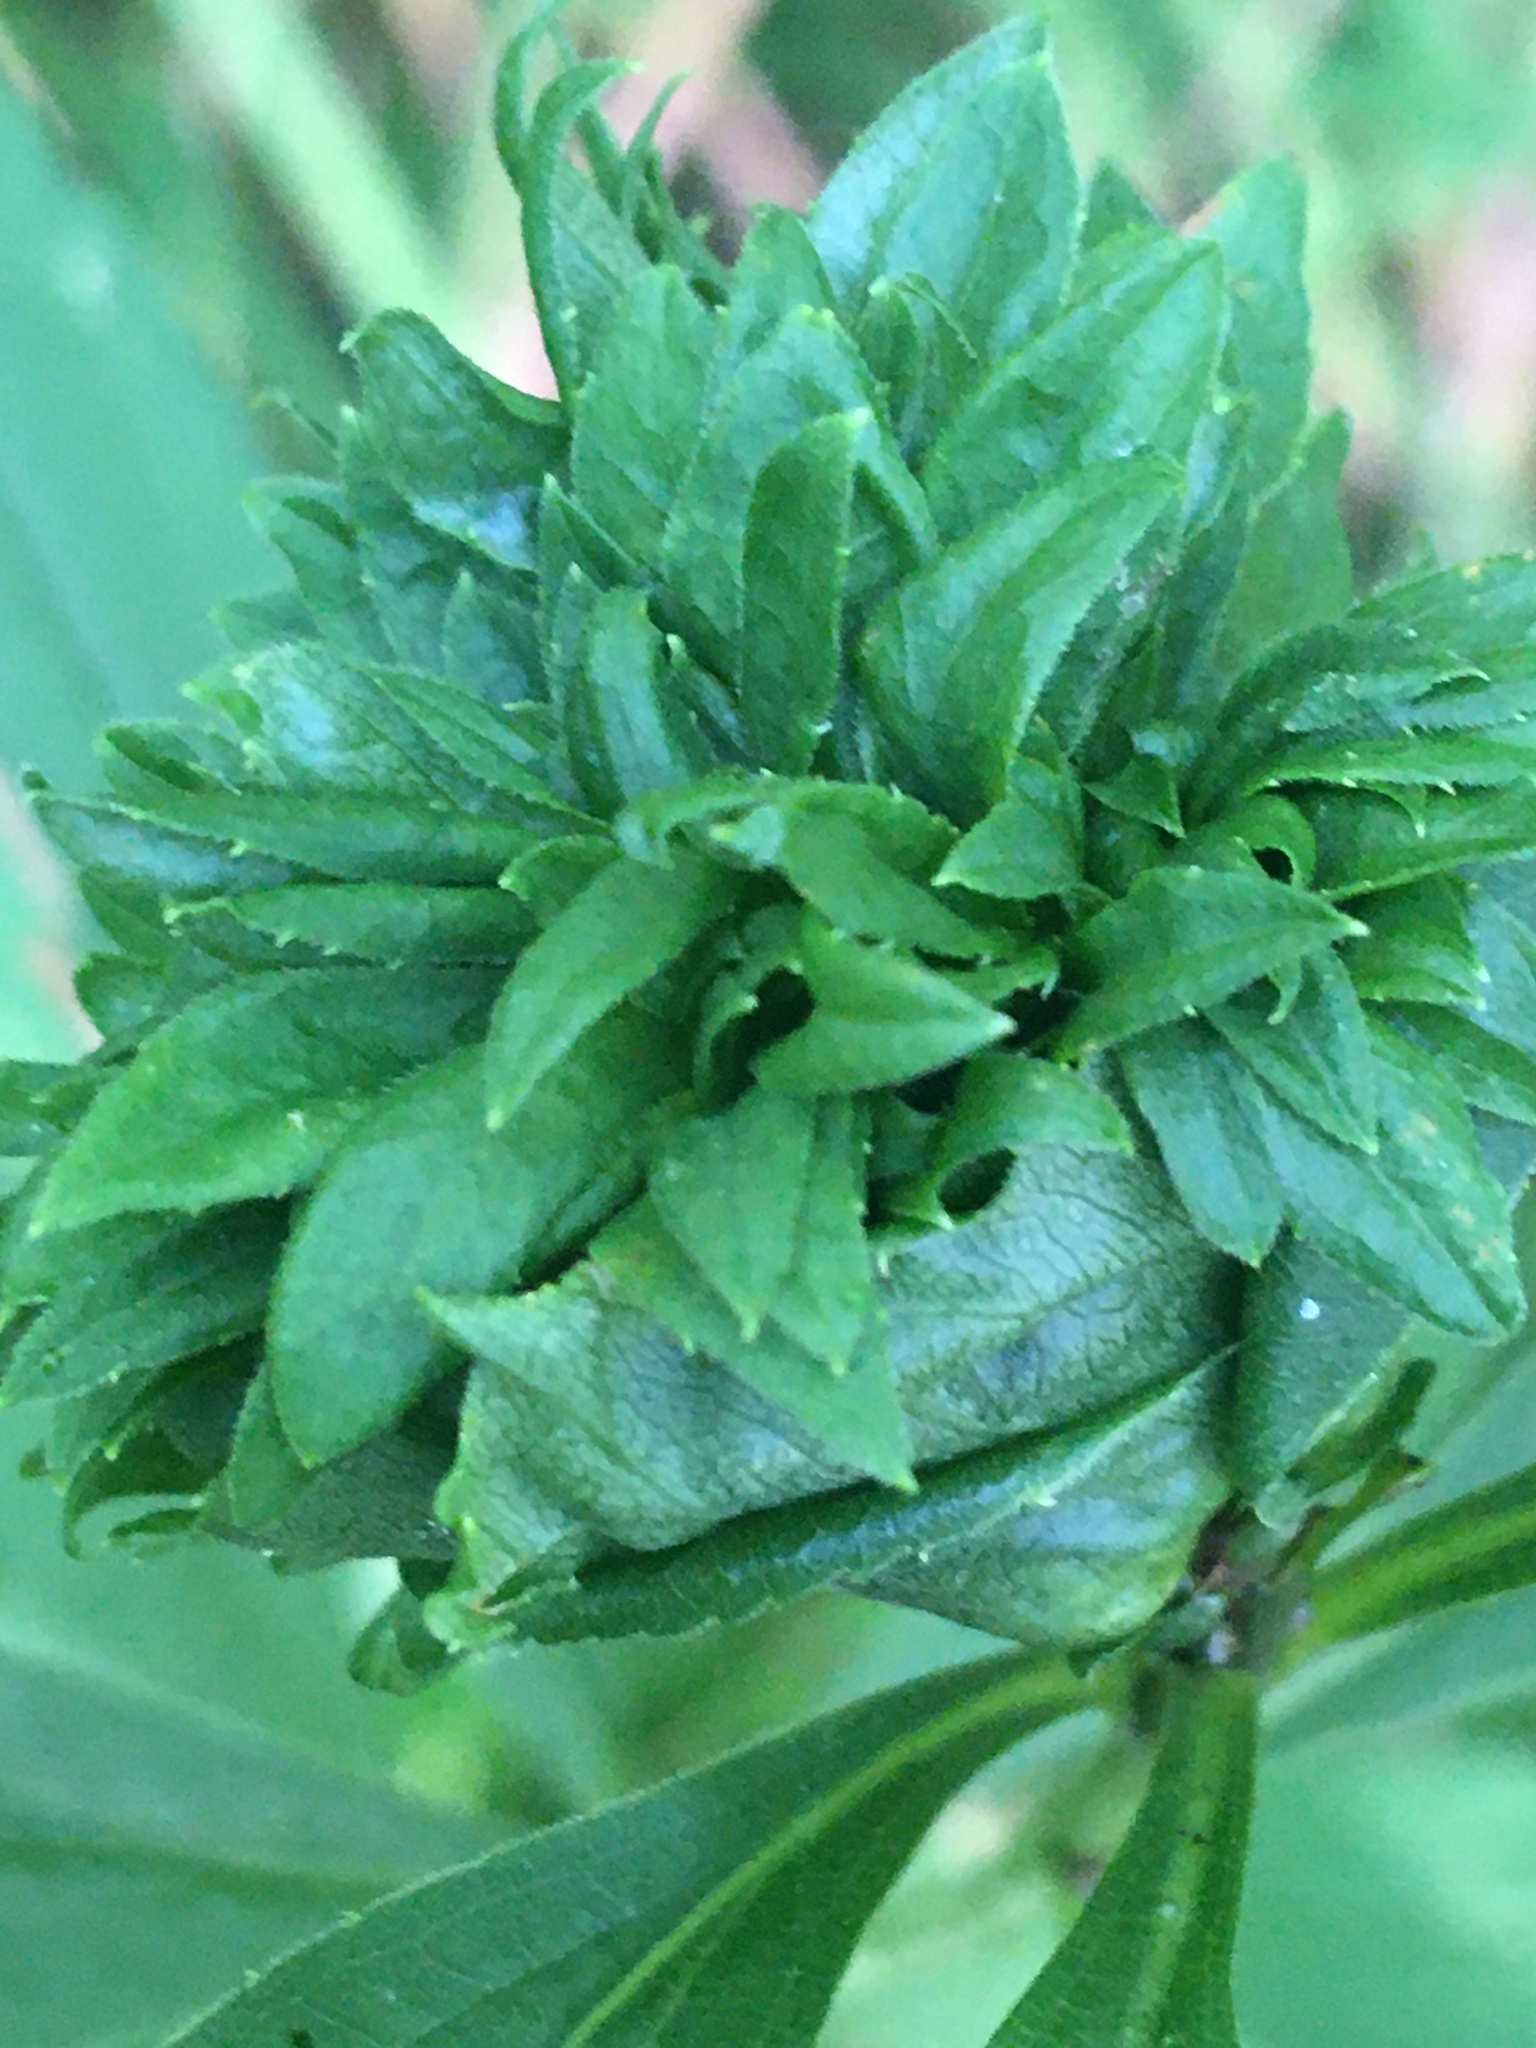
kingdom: Animalia
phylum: Arthropoda
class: Insecta
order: Diptera
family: Cecidomyiidae
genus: Rhopalomyia
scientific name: Rhopalomyia solidaginis
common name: Goldenrod bunch gall midge
